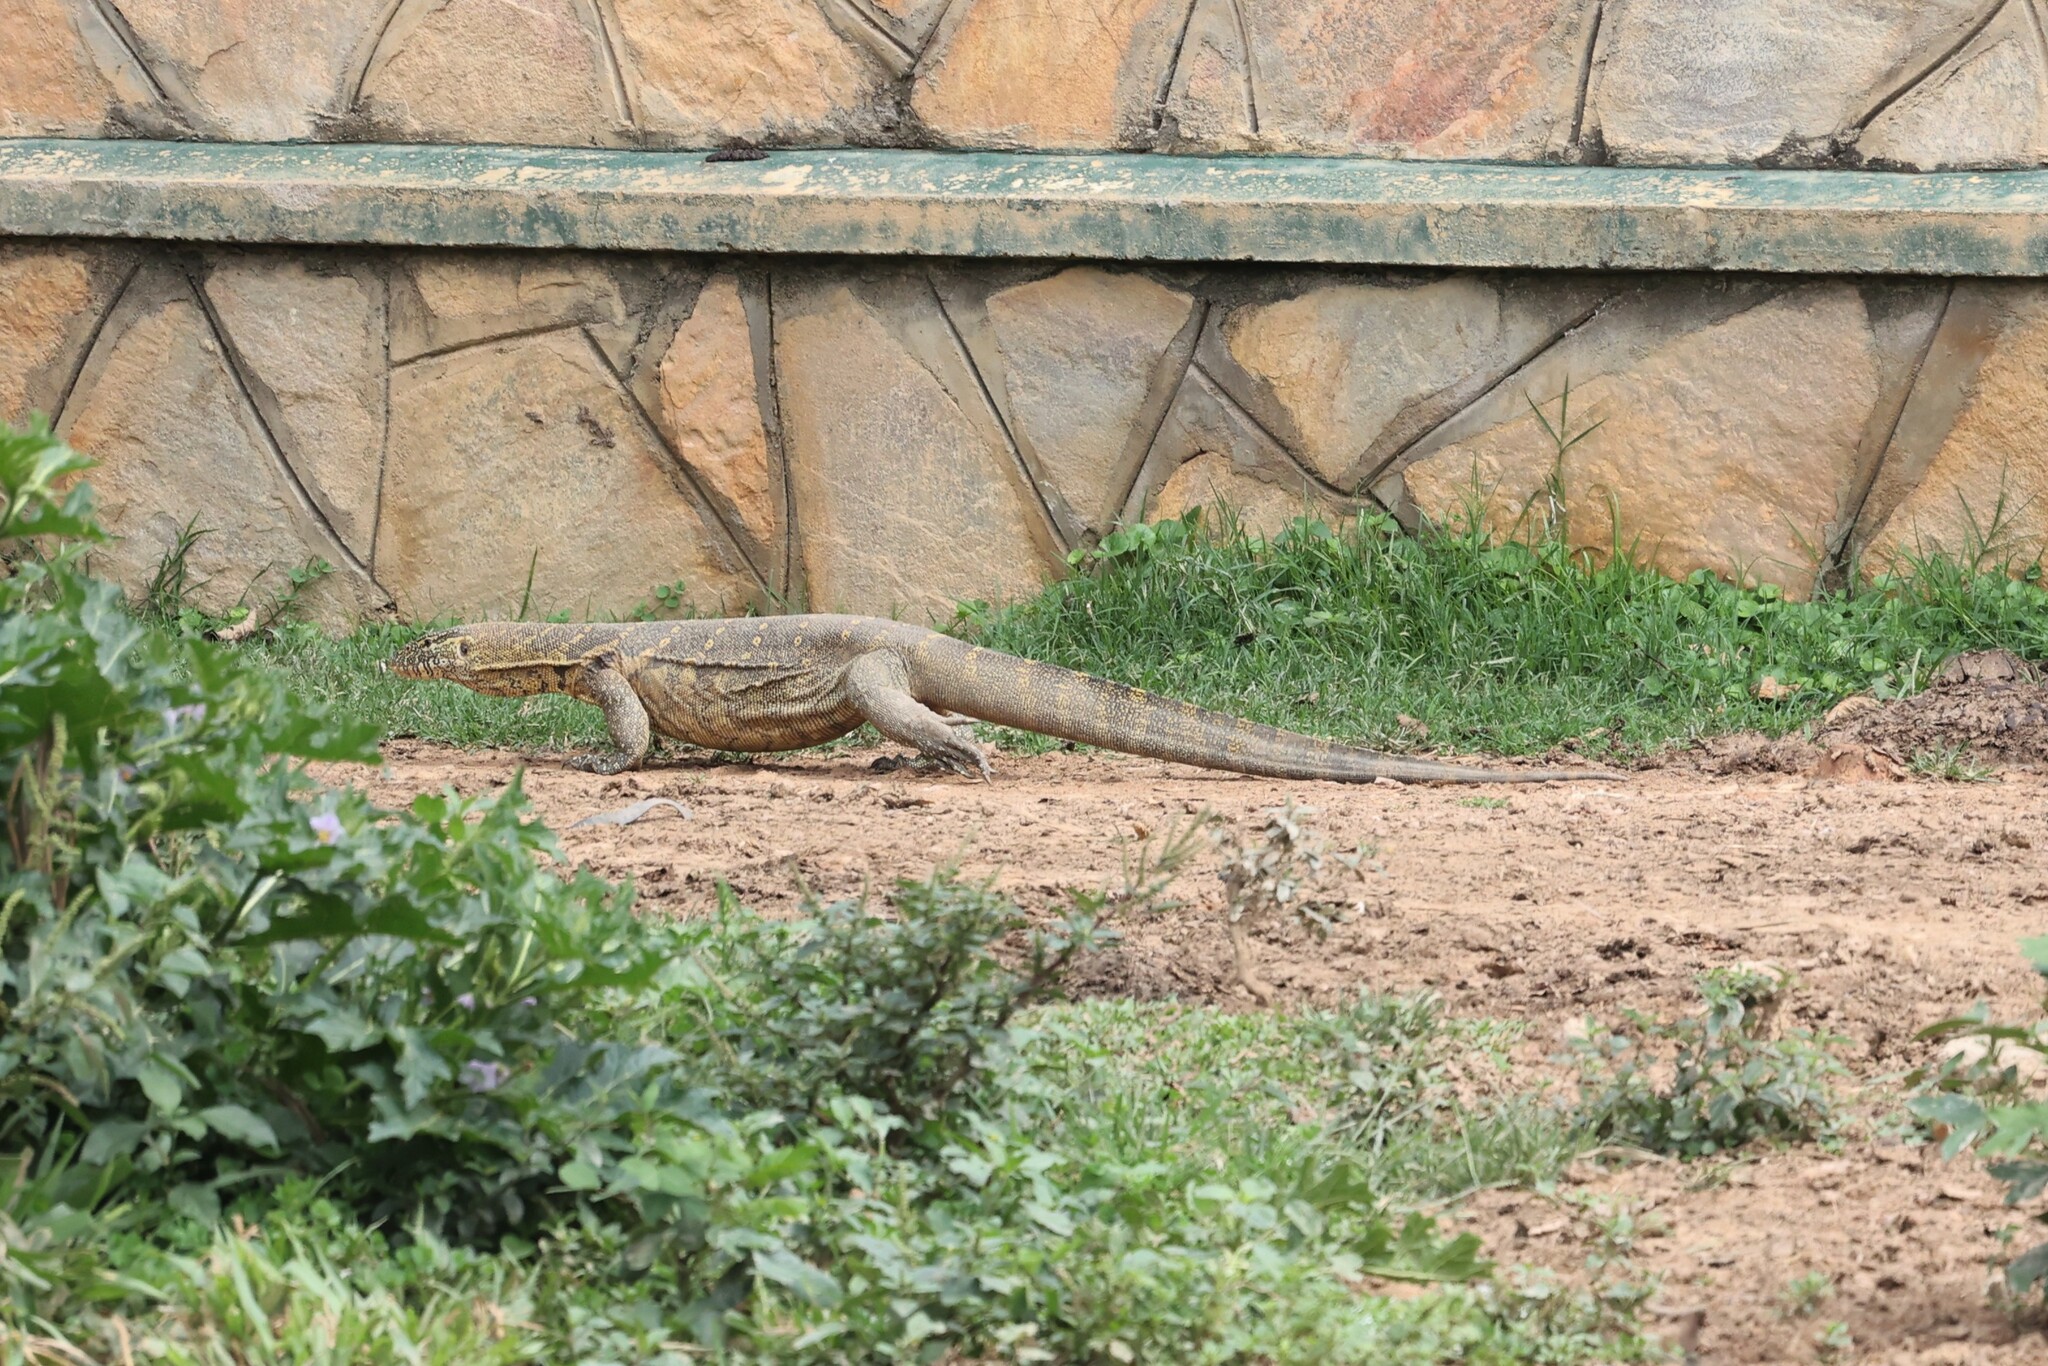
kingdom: Animalia
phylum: Chordata
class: Squamata
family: Varanidae
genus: Varanus
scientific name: Varanus niloticus
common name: Nile monitor
